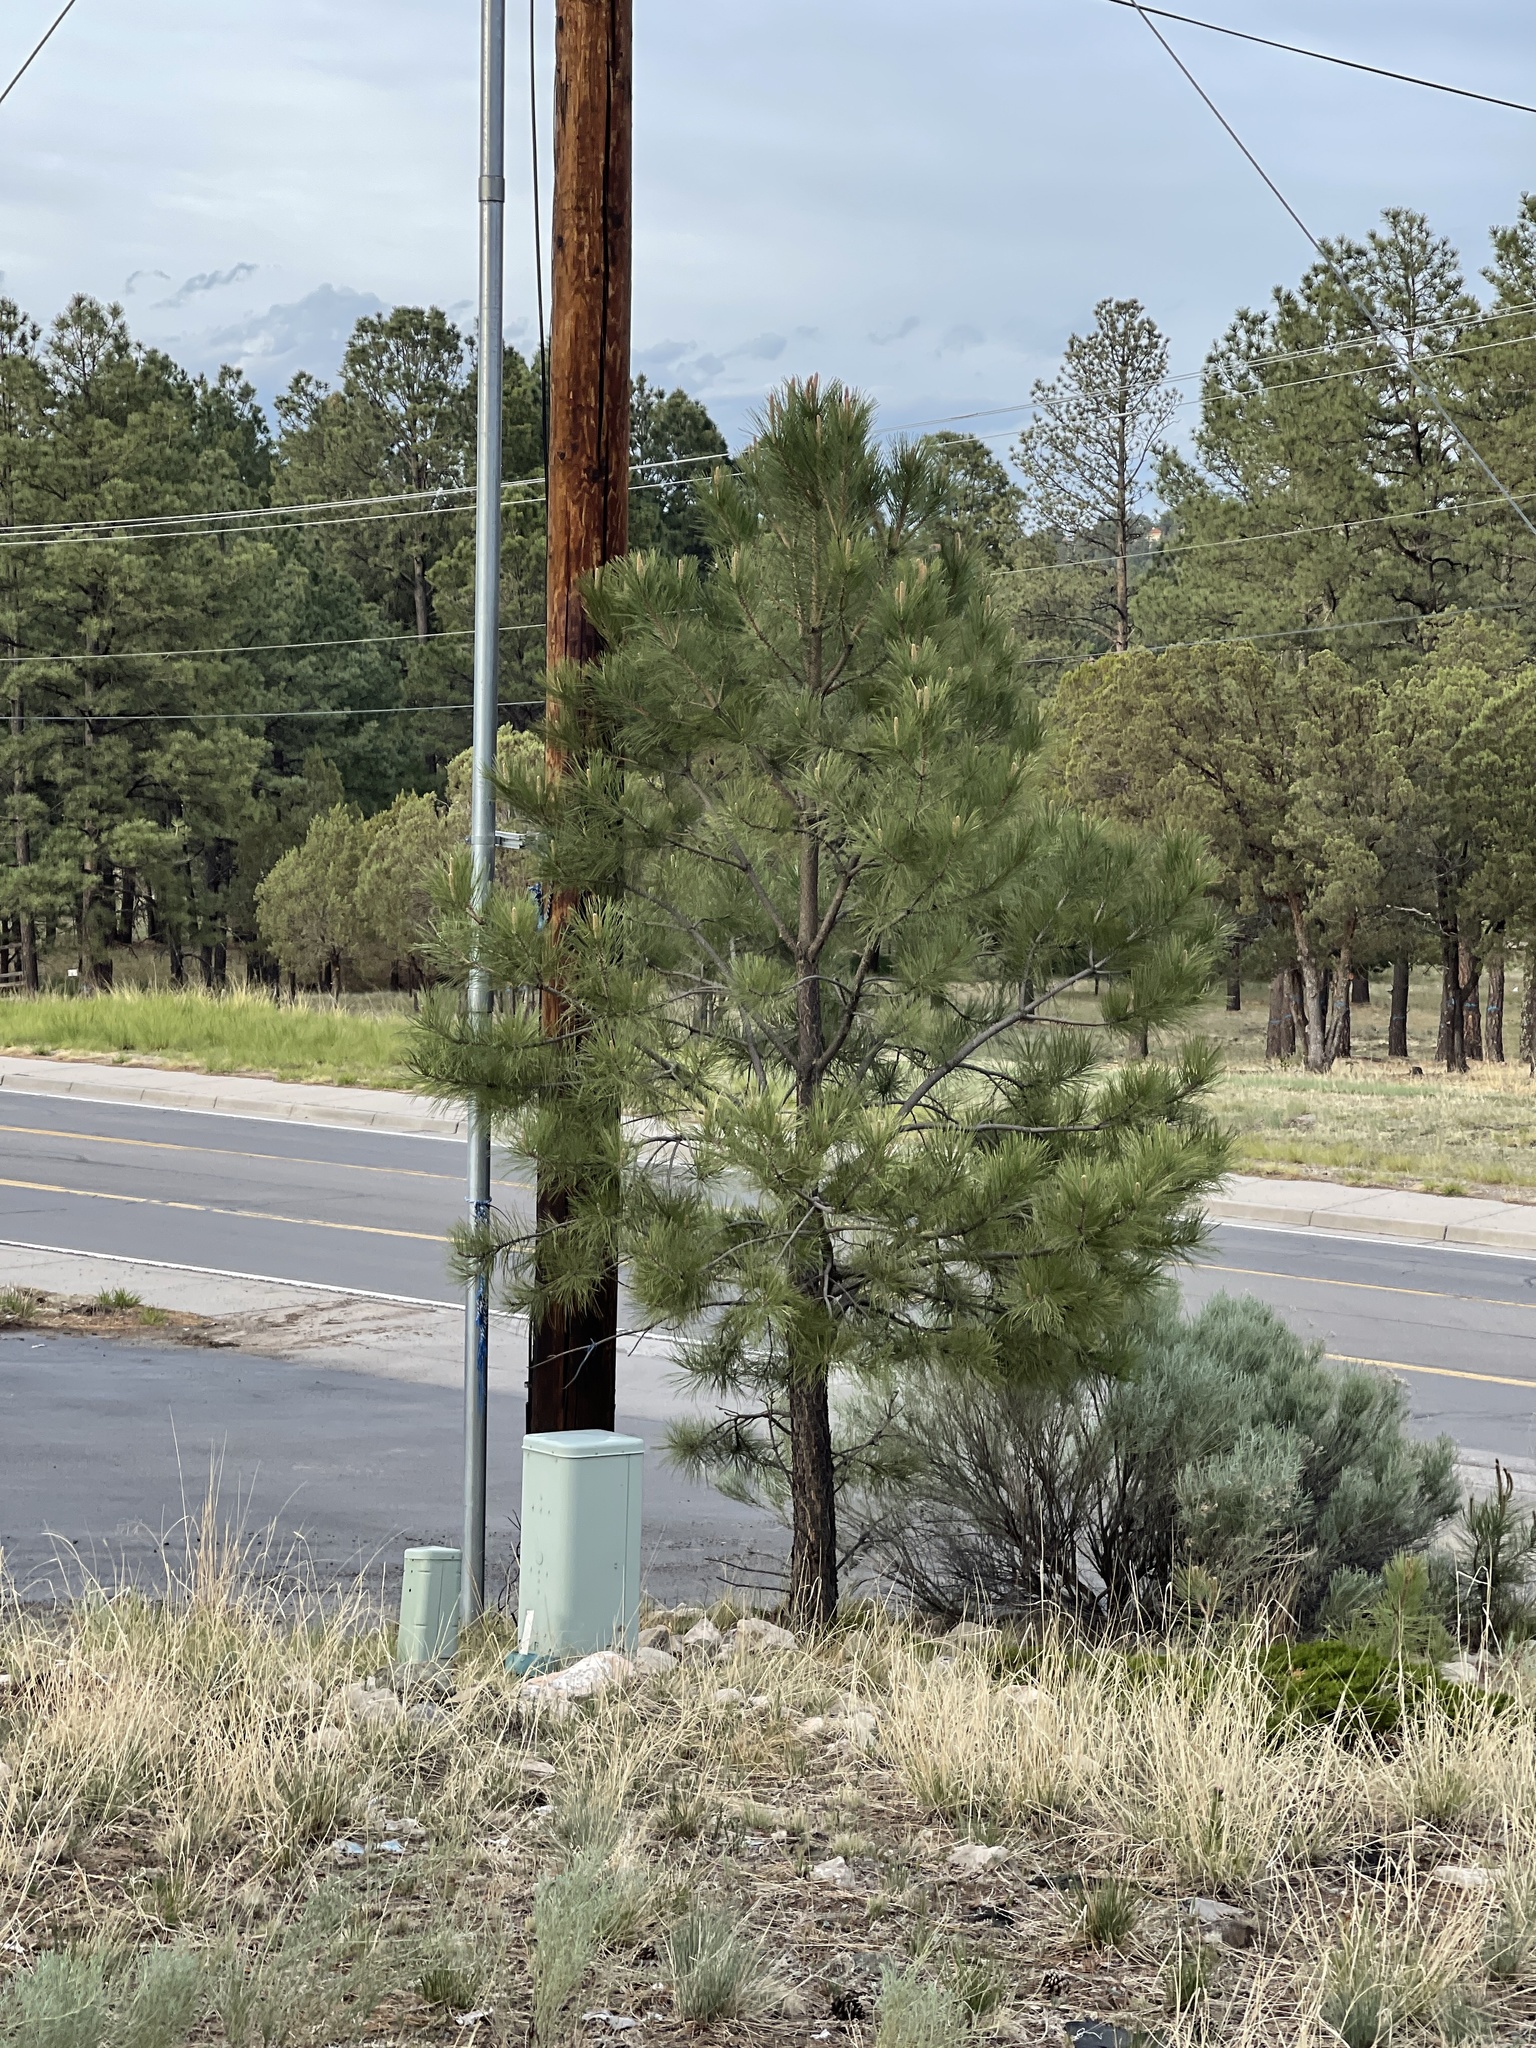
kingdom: Plantae
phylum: Tracheophyta
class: Pinopsida
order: Pinales
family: Pinaceae
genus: Pinus
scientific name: Pinus ponderosa
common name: Western yellow-pine
